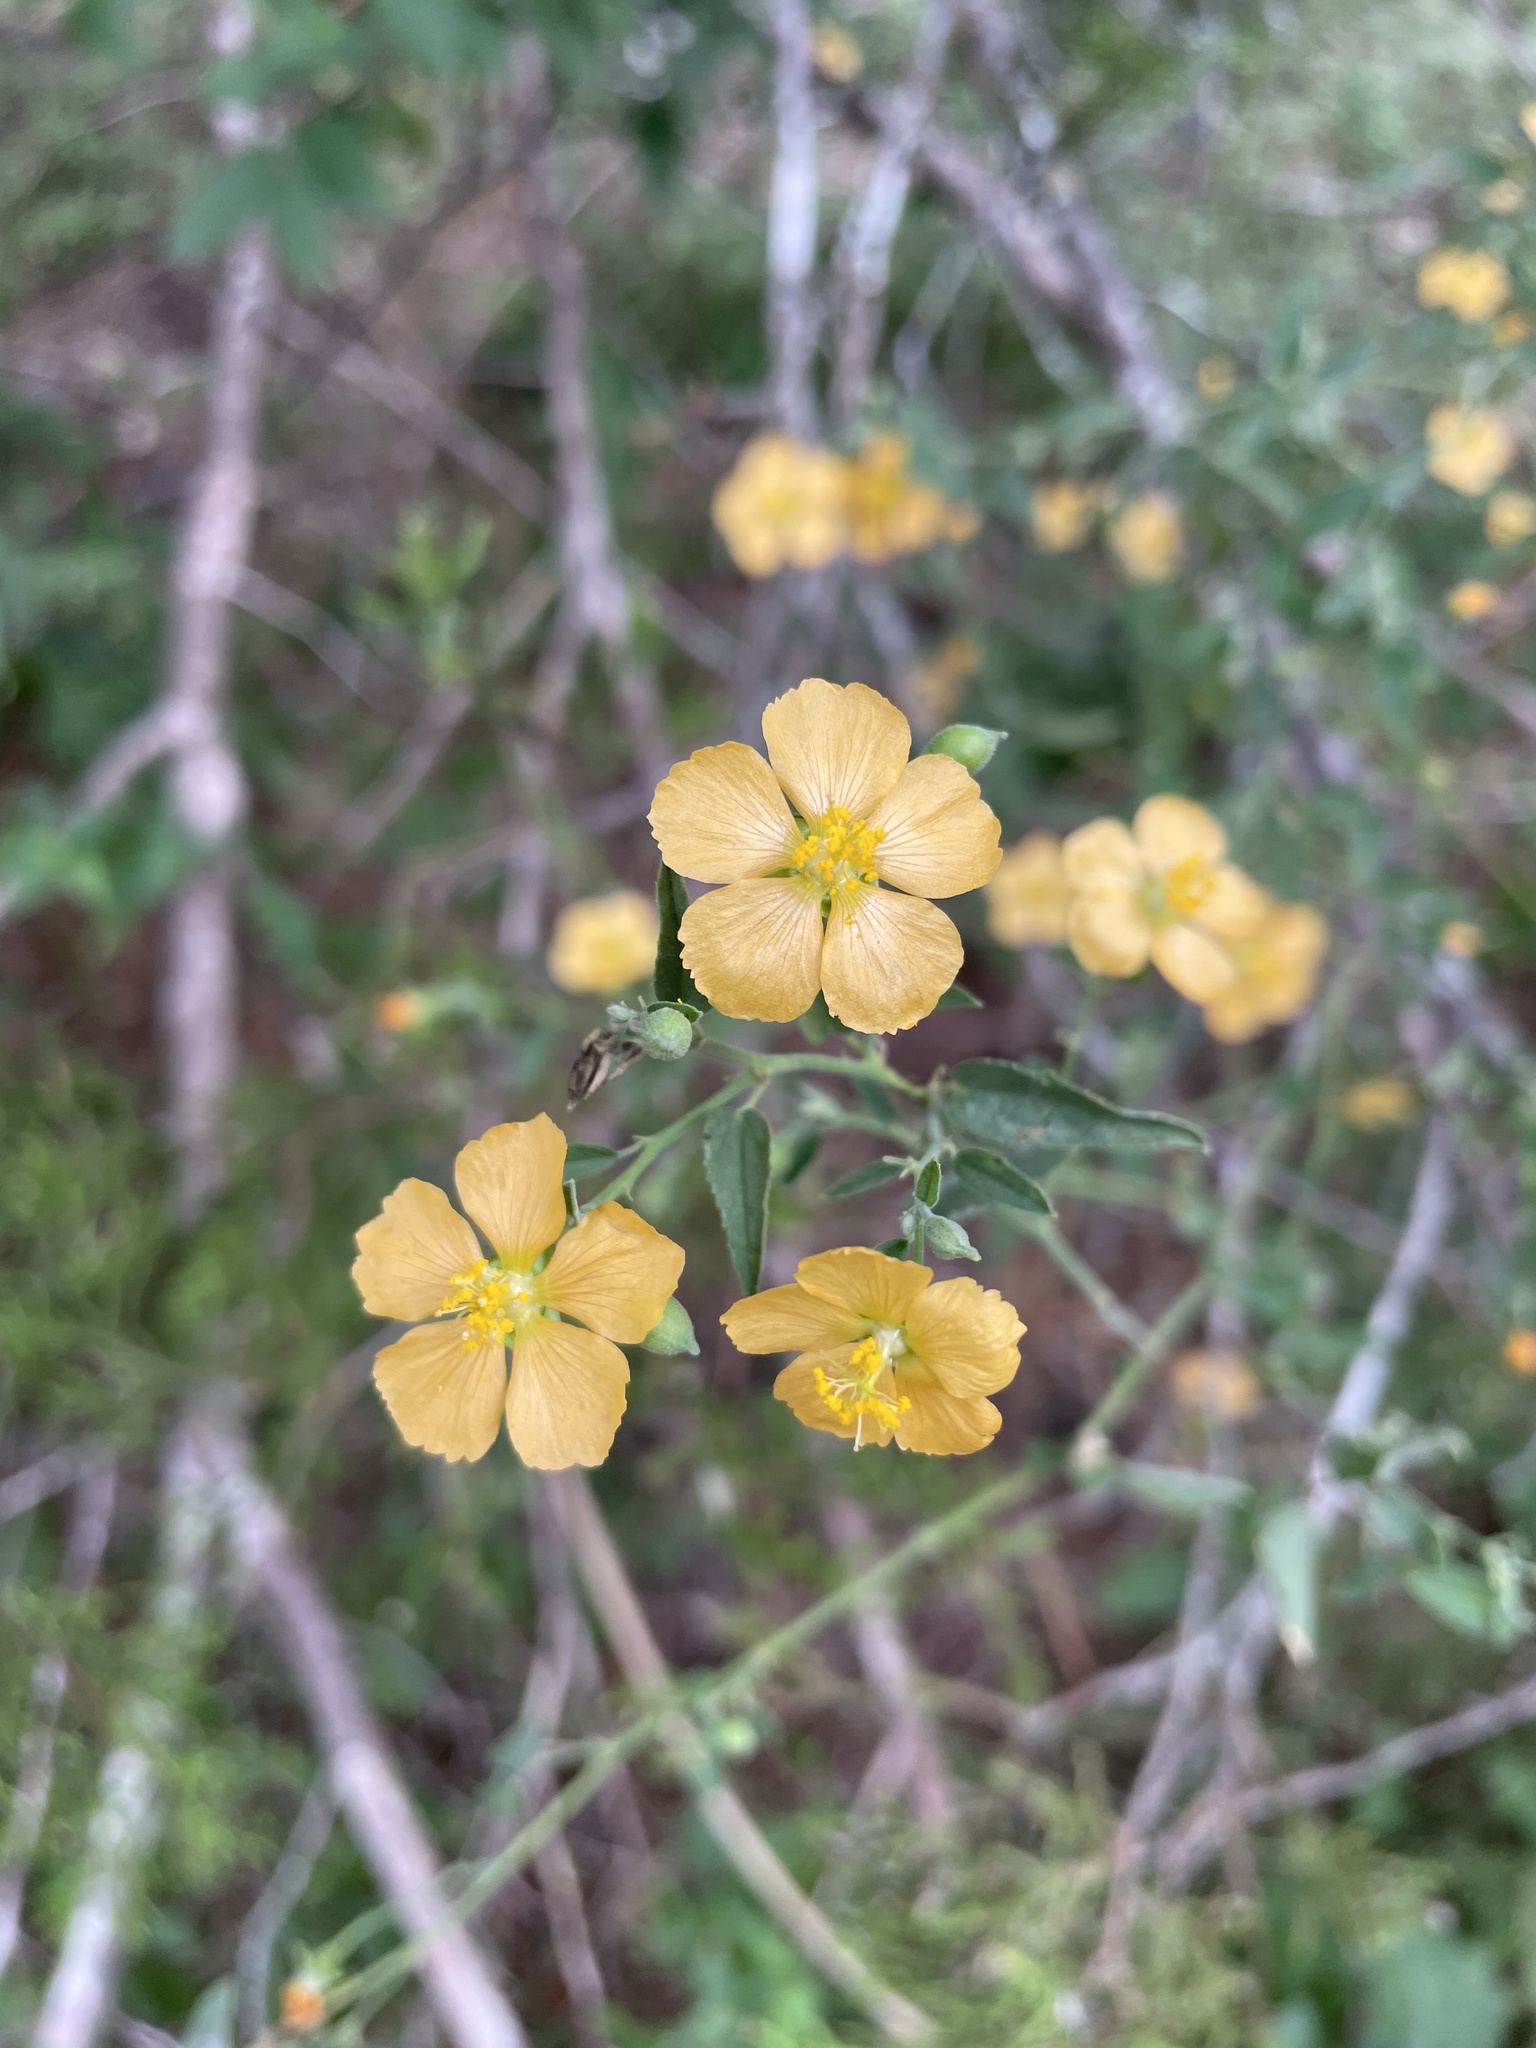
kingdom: Plantae
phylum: Tracheophyta
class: Magnoliopsida
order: Malvales
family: Malvaceae
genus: Abutilon
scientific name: Abutilon fruticosum
